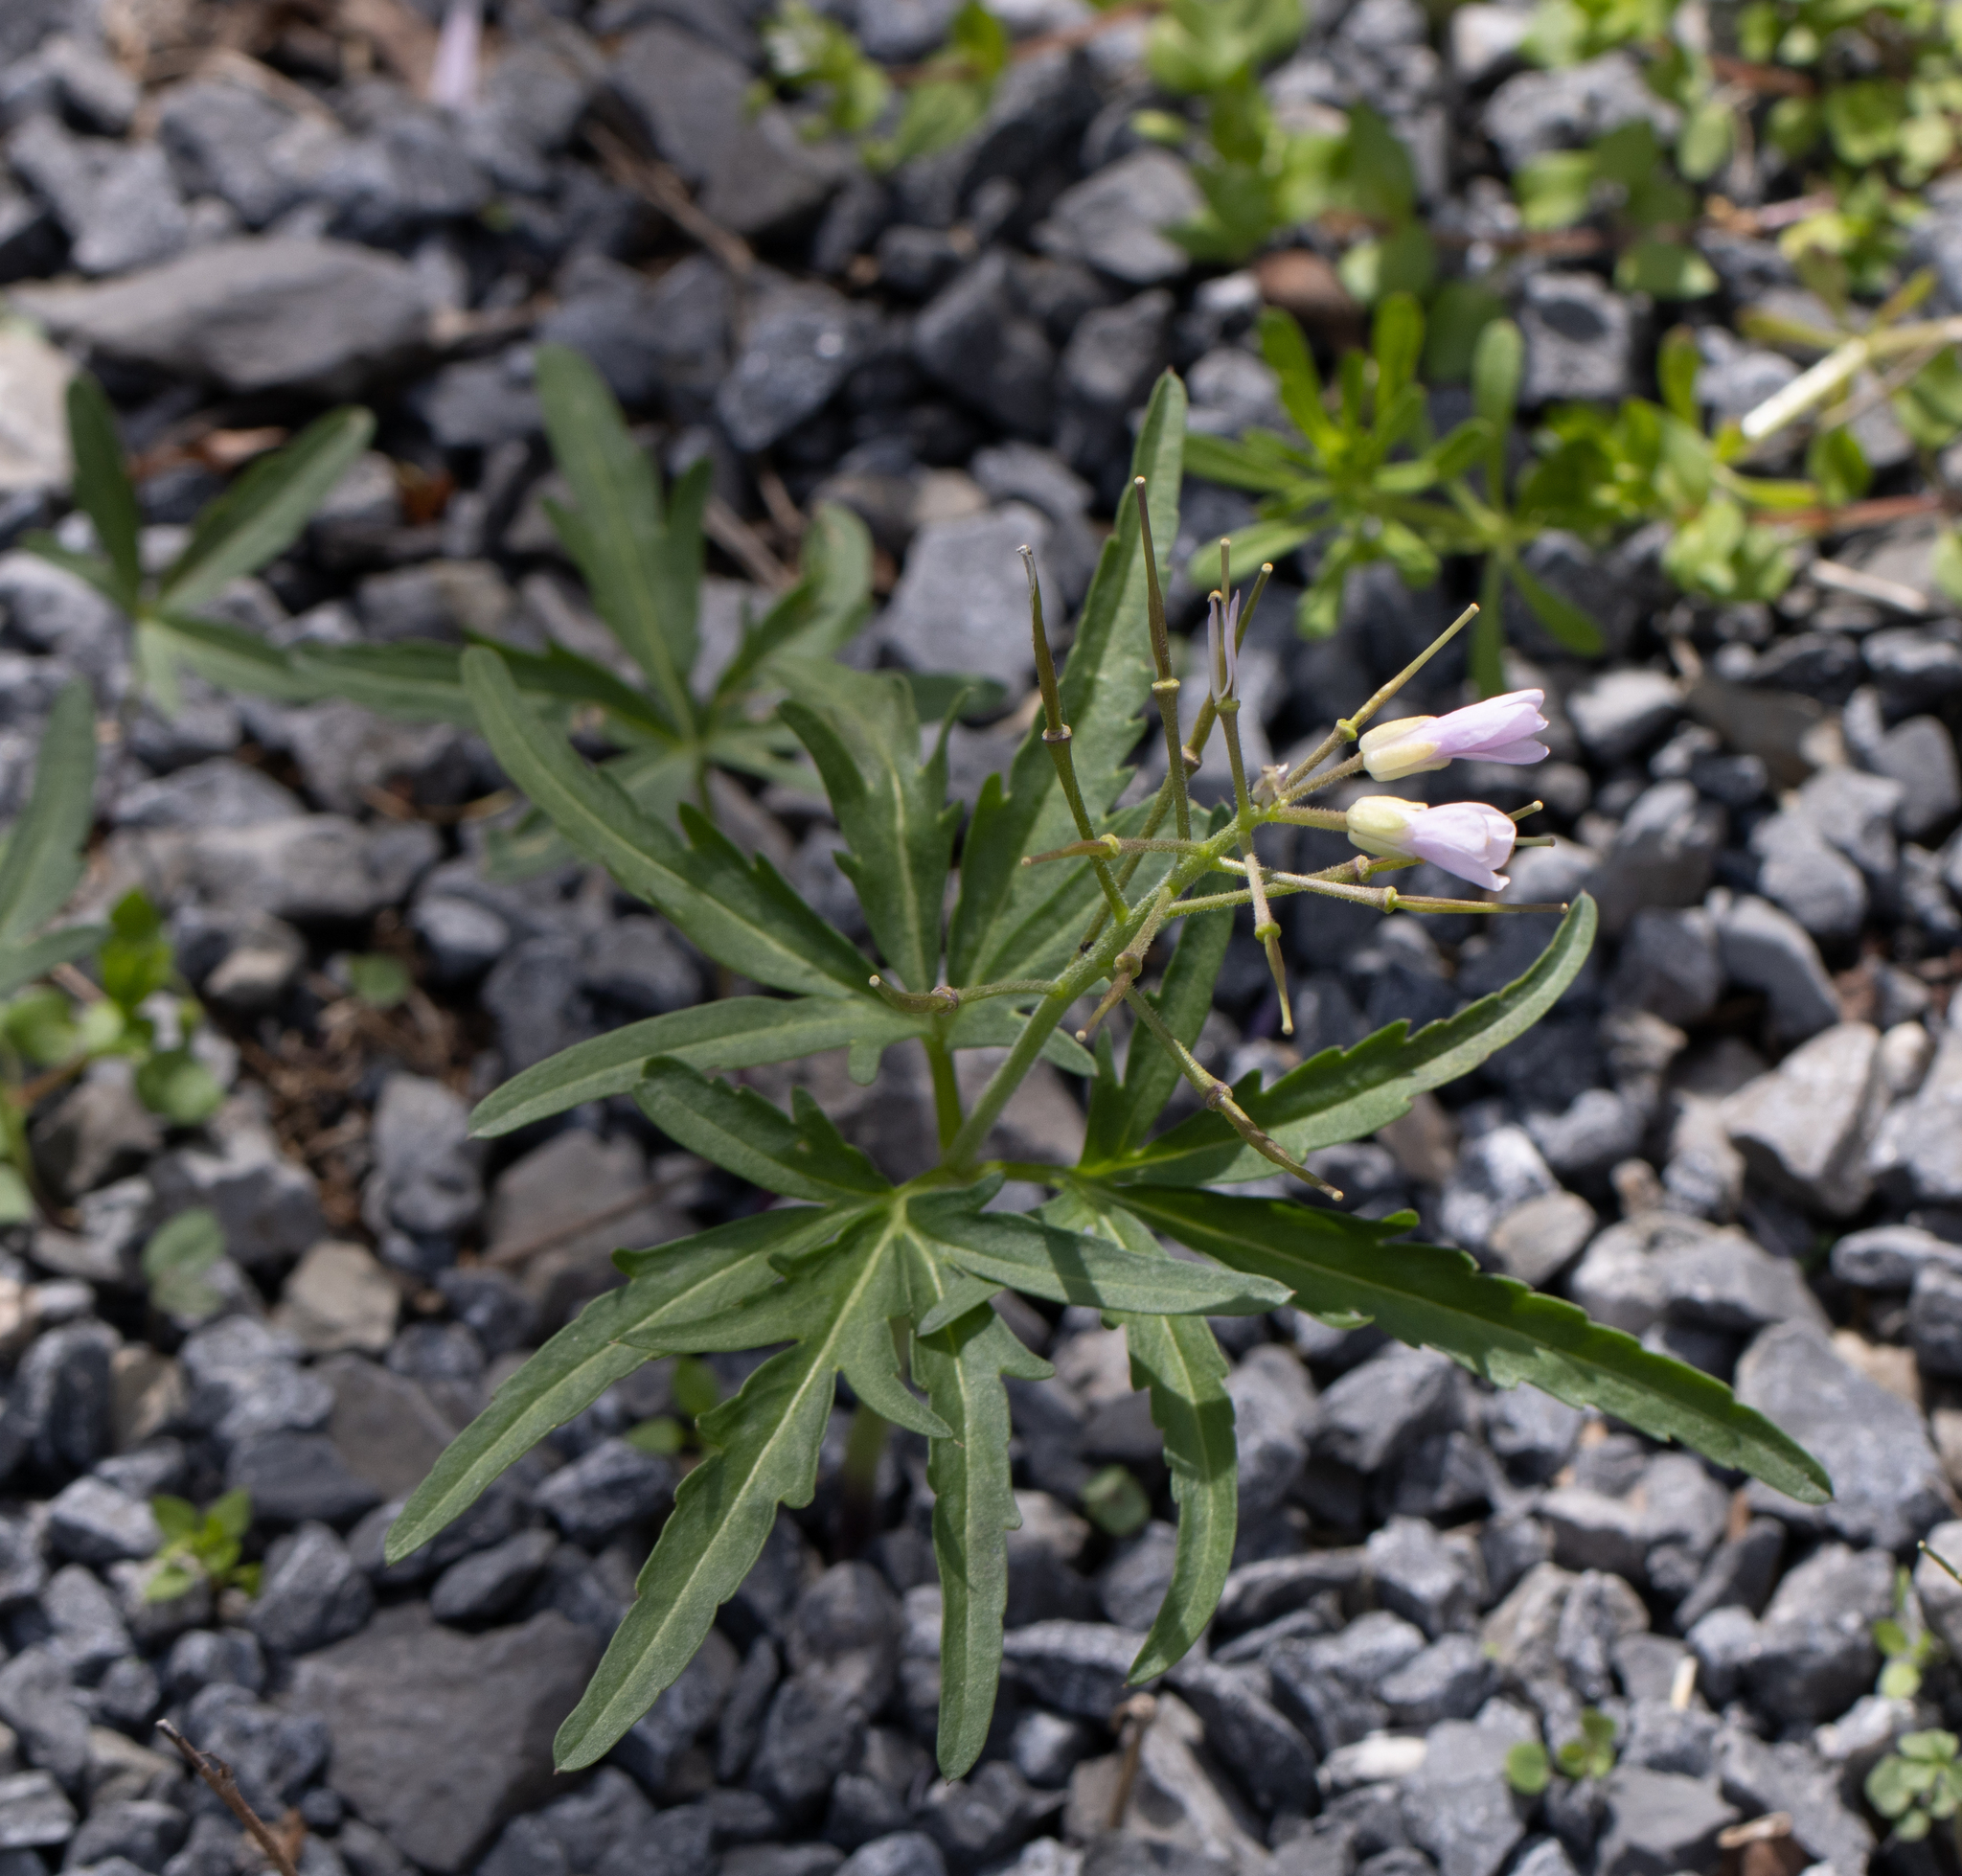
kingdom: Plantae
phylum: Tracheophyta
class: Magnoliopsida
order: Brassicales
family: Brassicaceae
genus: Cardamine
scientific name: Cardamine concatenata
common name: Cut-leaf toothcup
